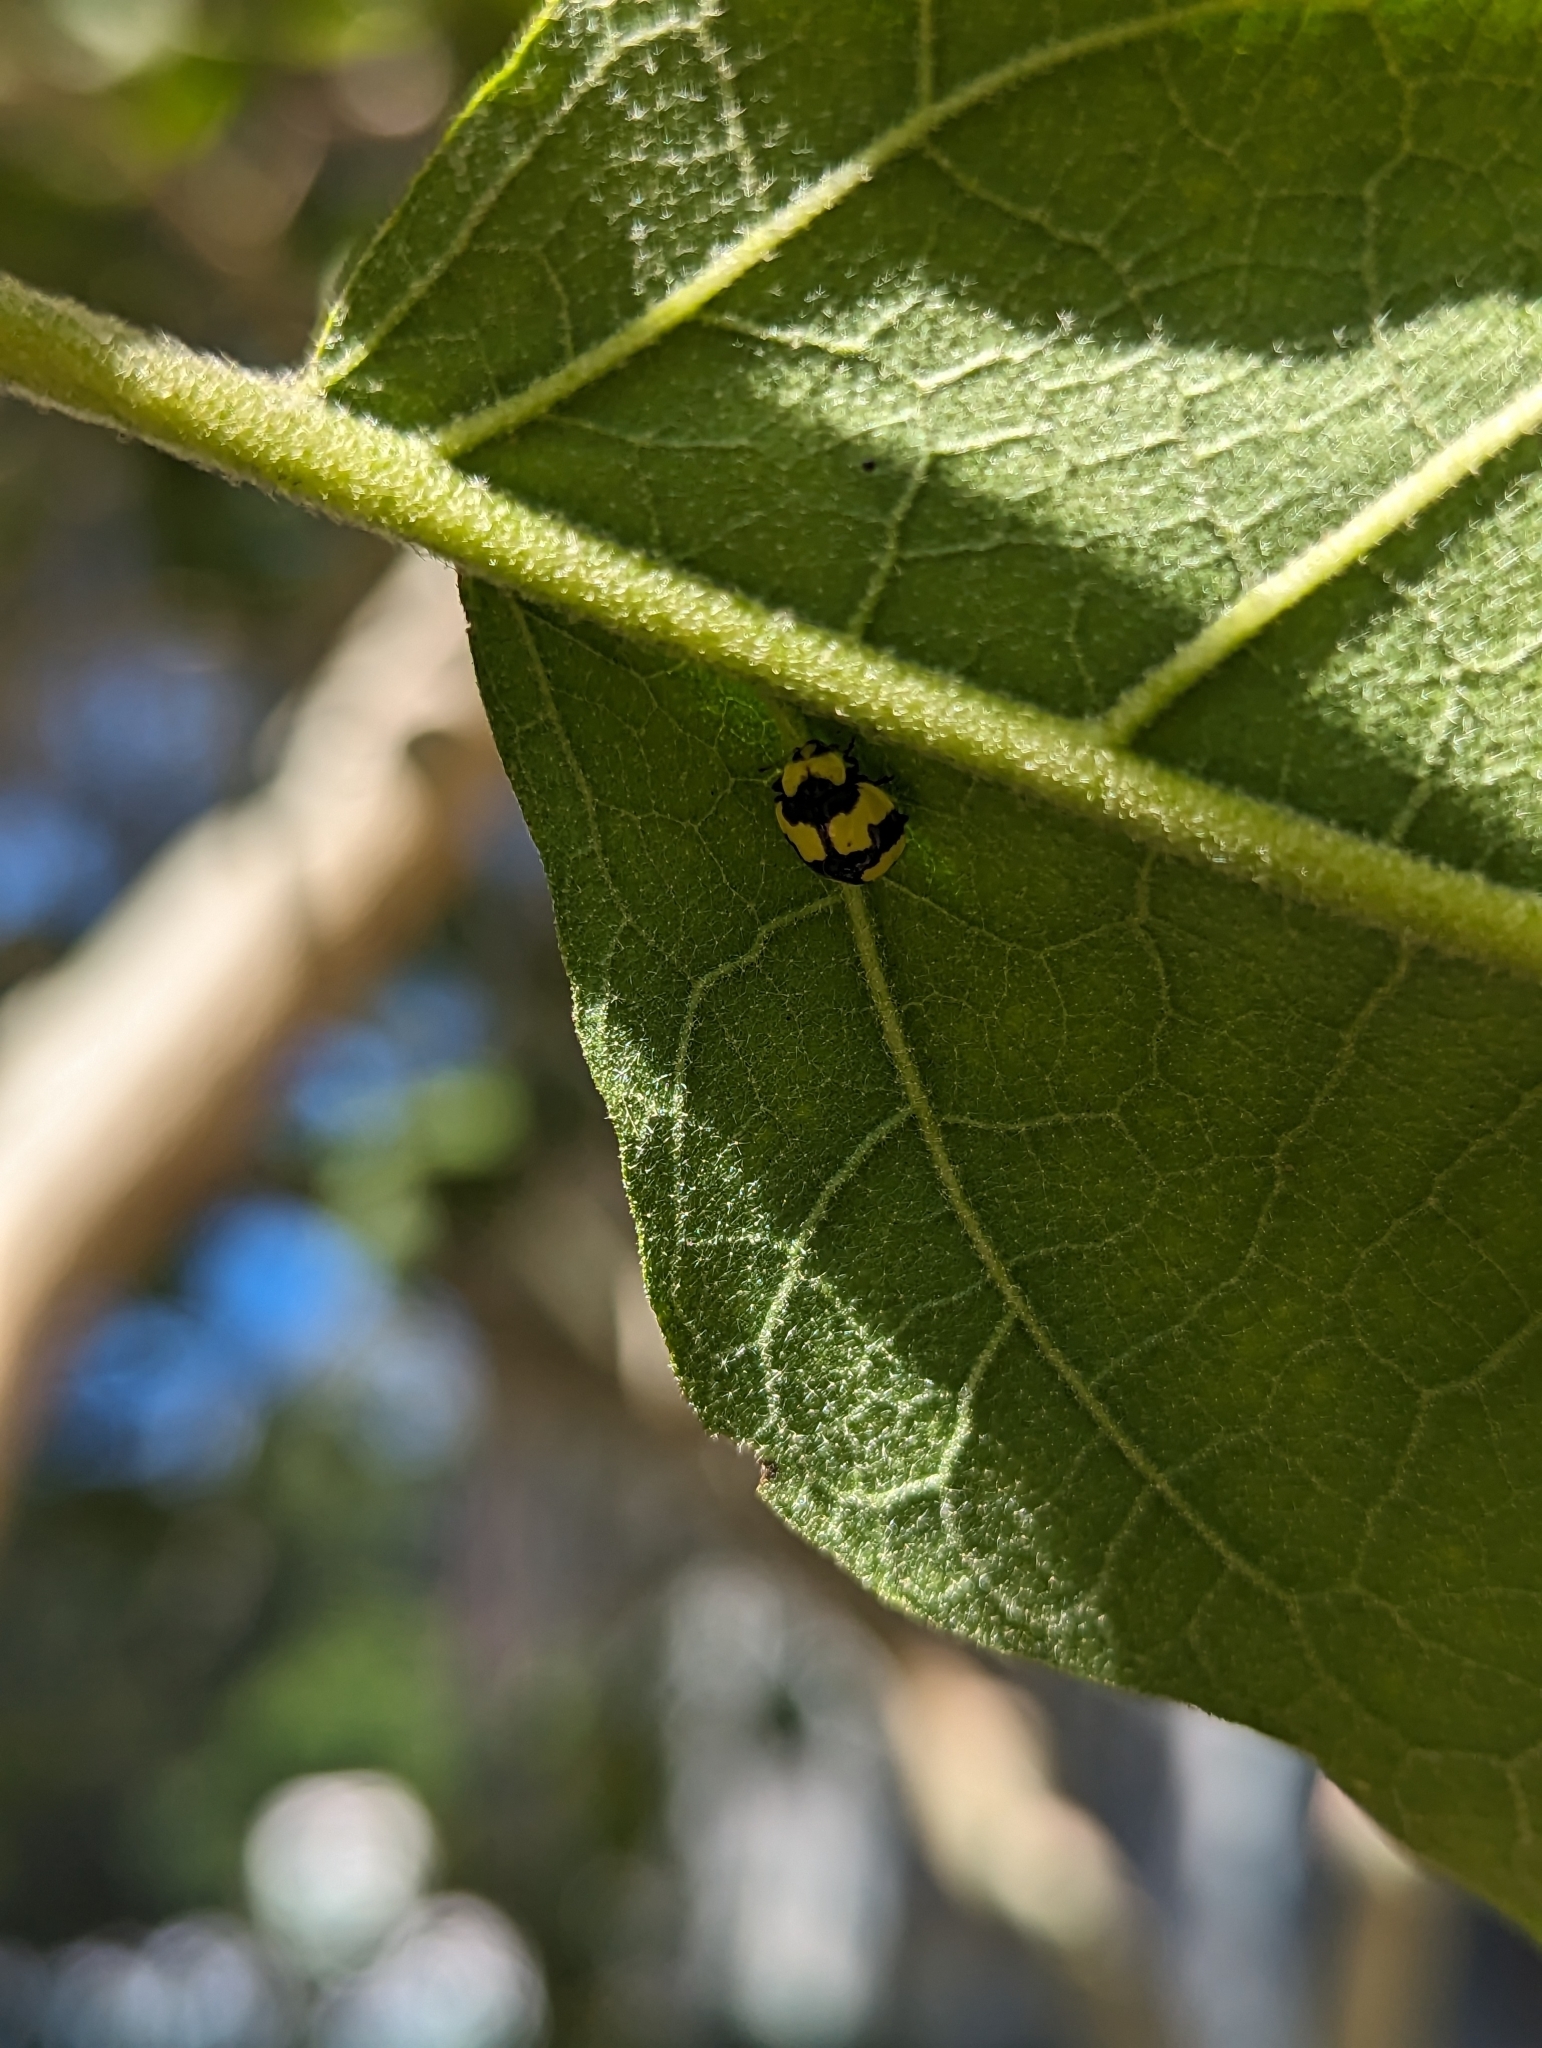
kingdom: Animalia
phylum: Arthropoda
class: Insecta
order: Coleoptera
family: Coccinellidae
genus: Illeis
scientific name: Illeis galbula
